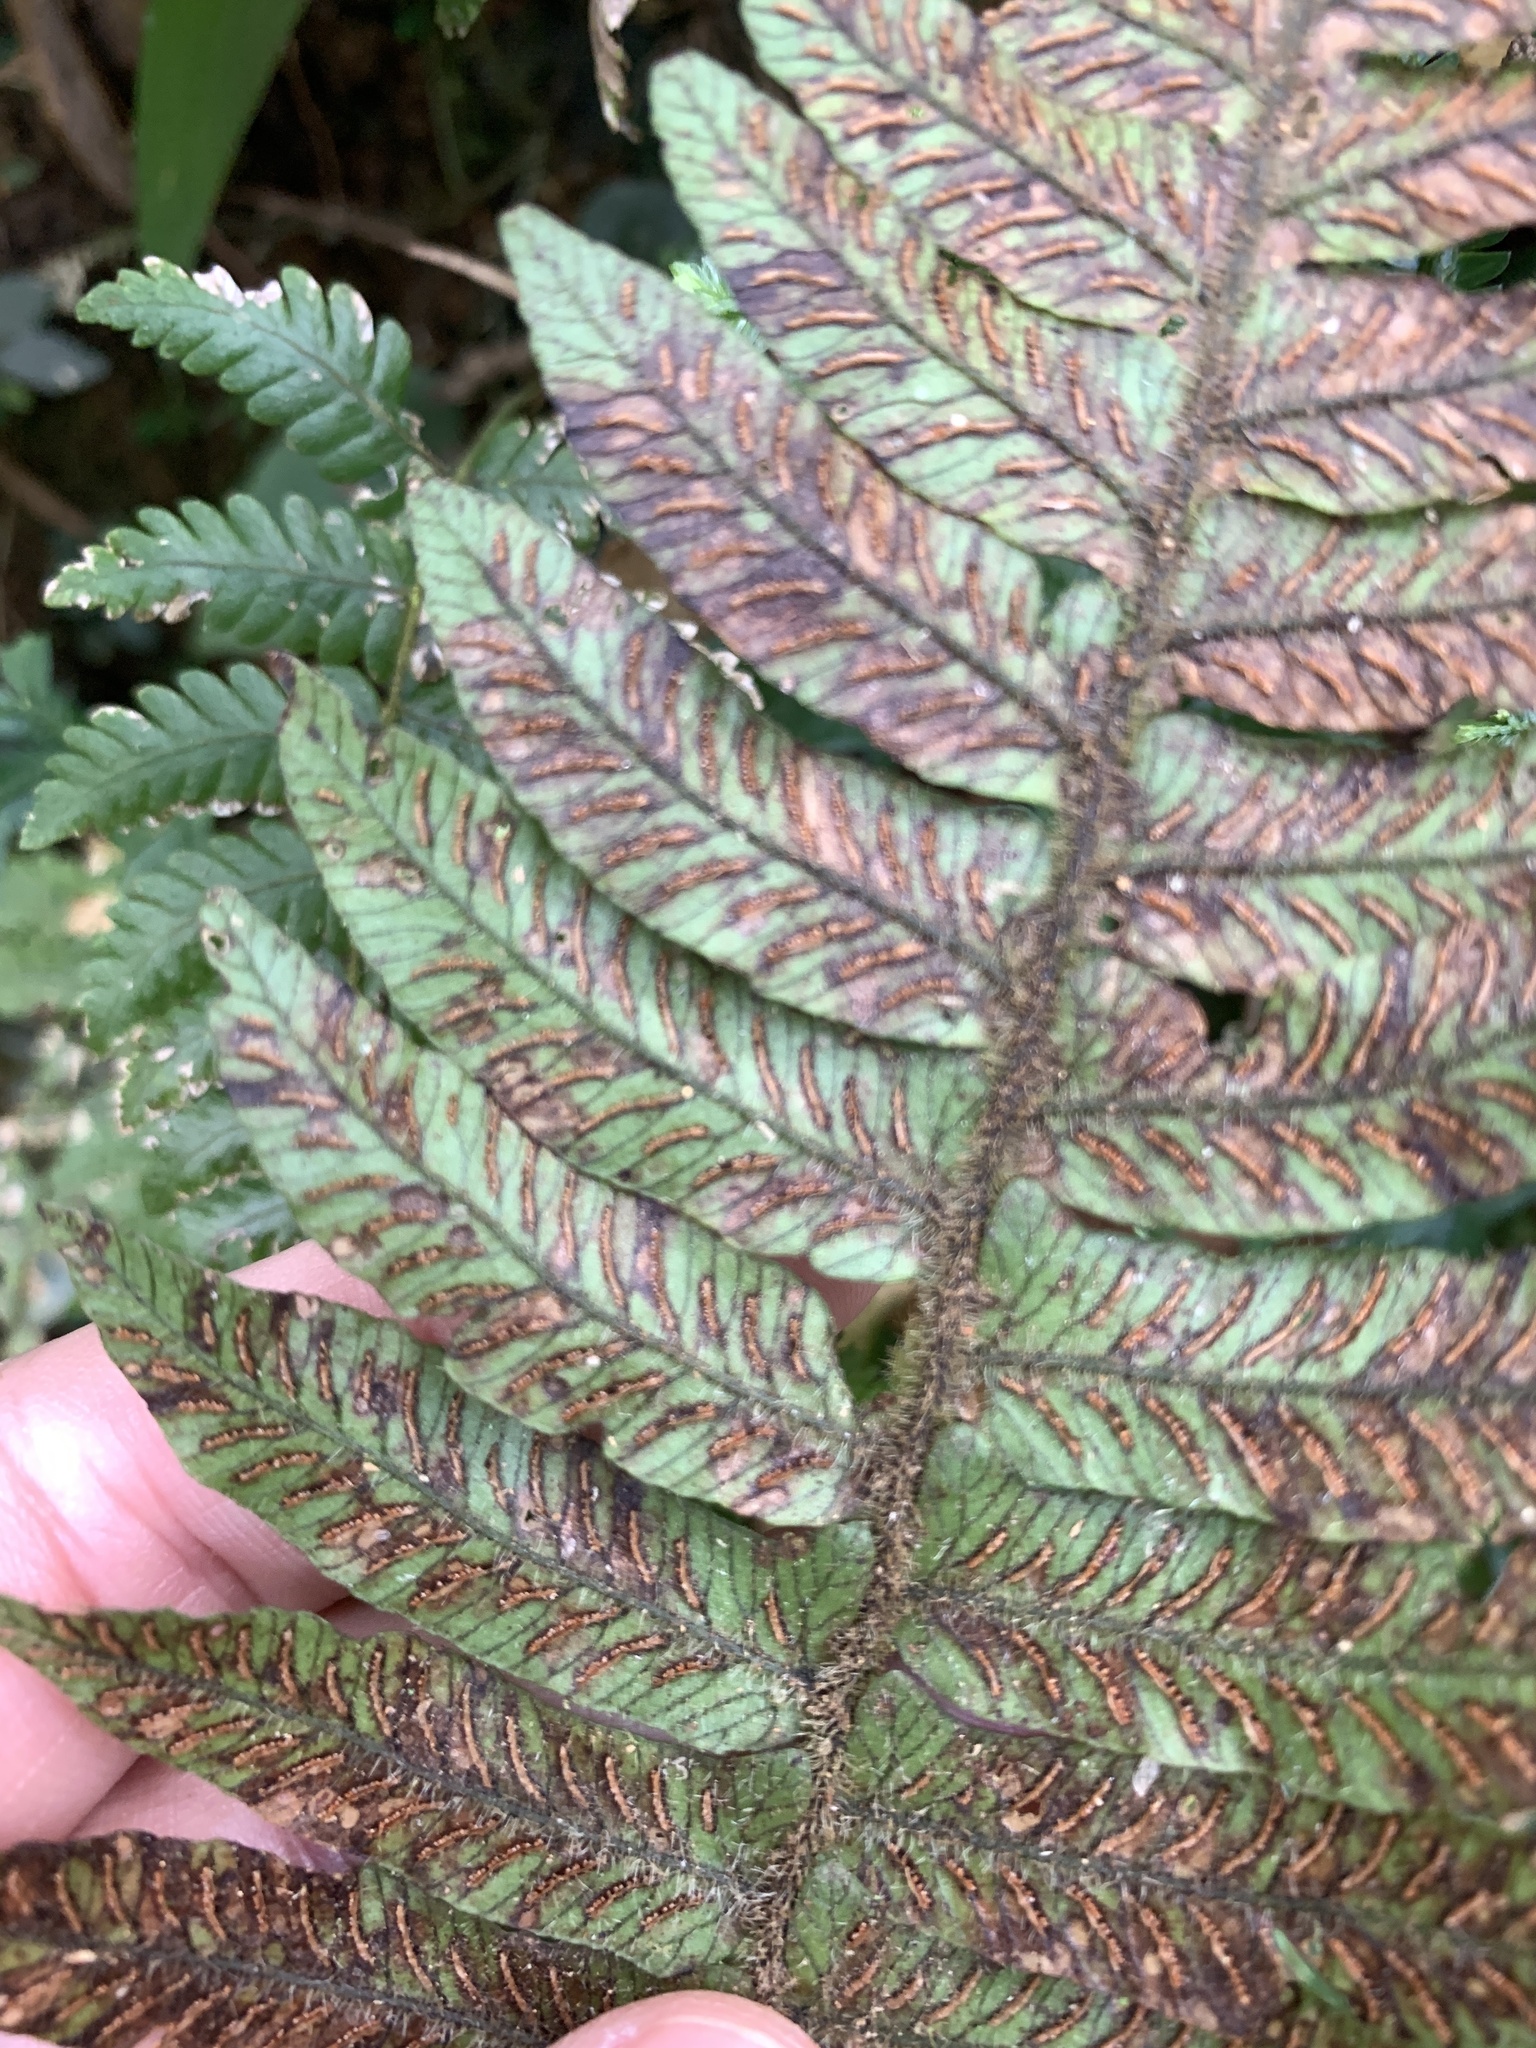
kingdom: Plantae
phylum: Tracheophyta
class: Polypodiopsida
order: Polypodiales
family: Athyriaceae
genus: Diplazium
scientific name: Diplazium pullingeri
